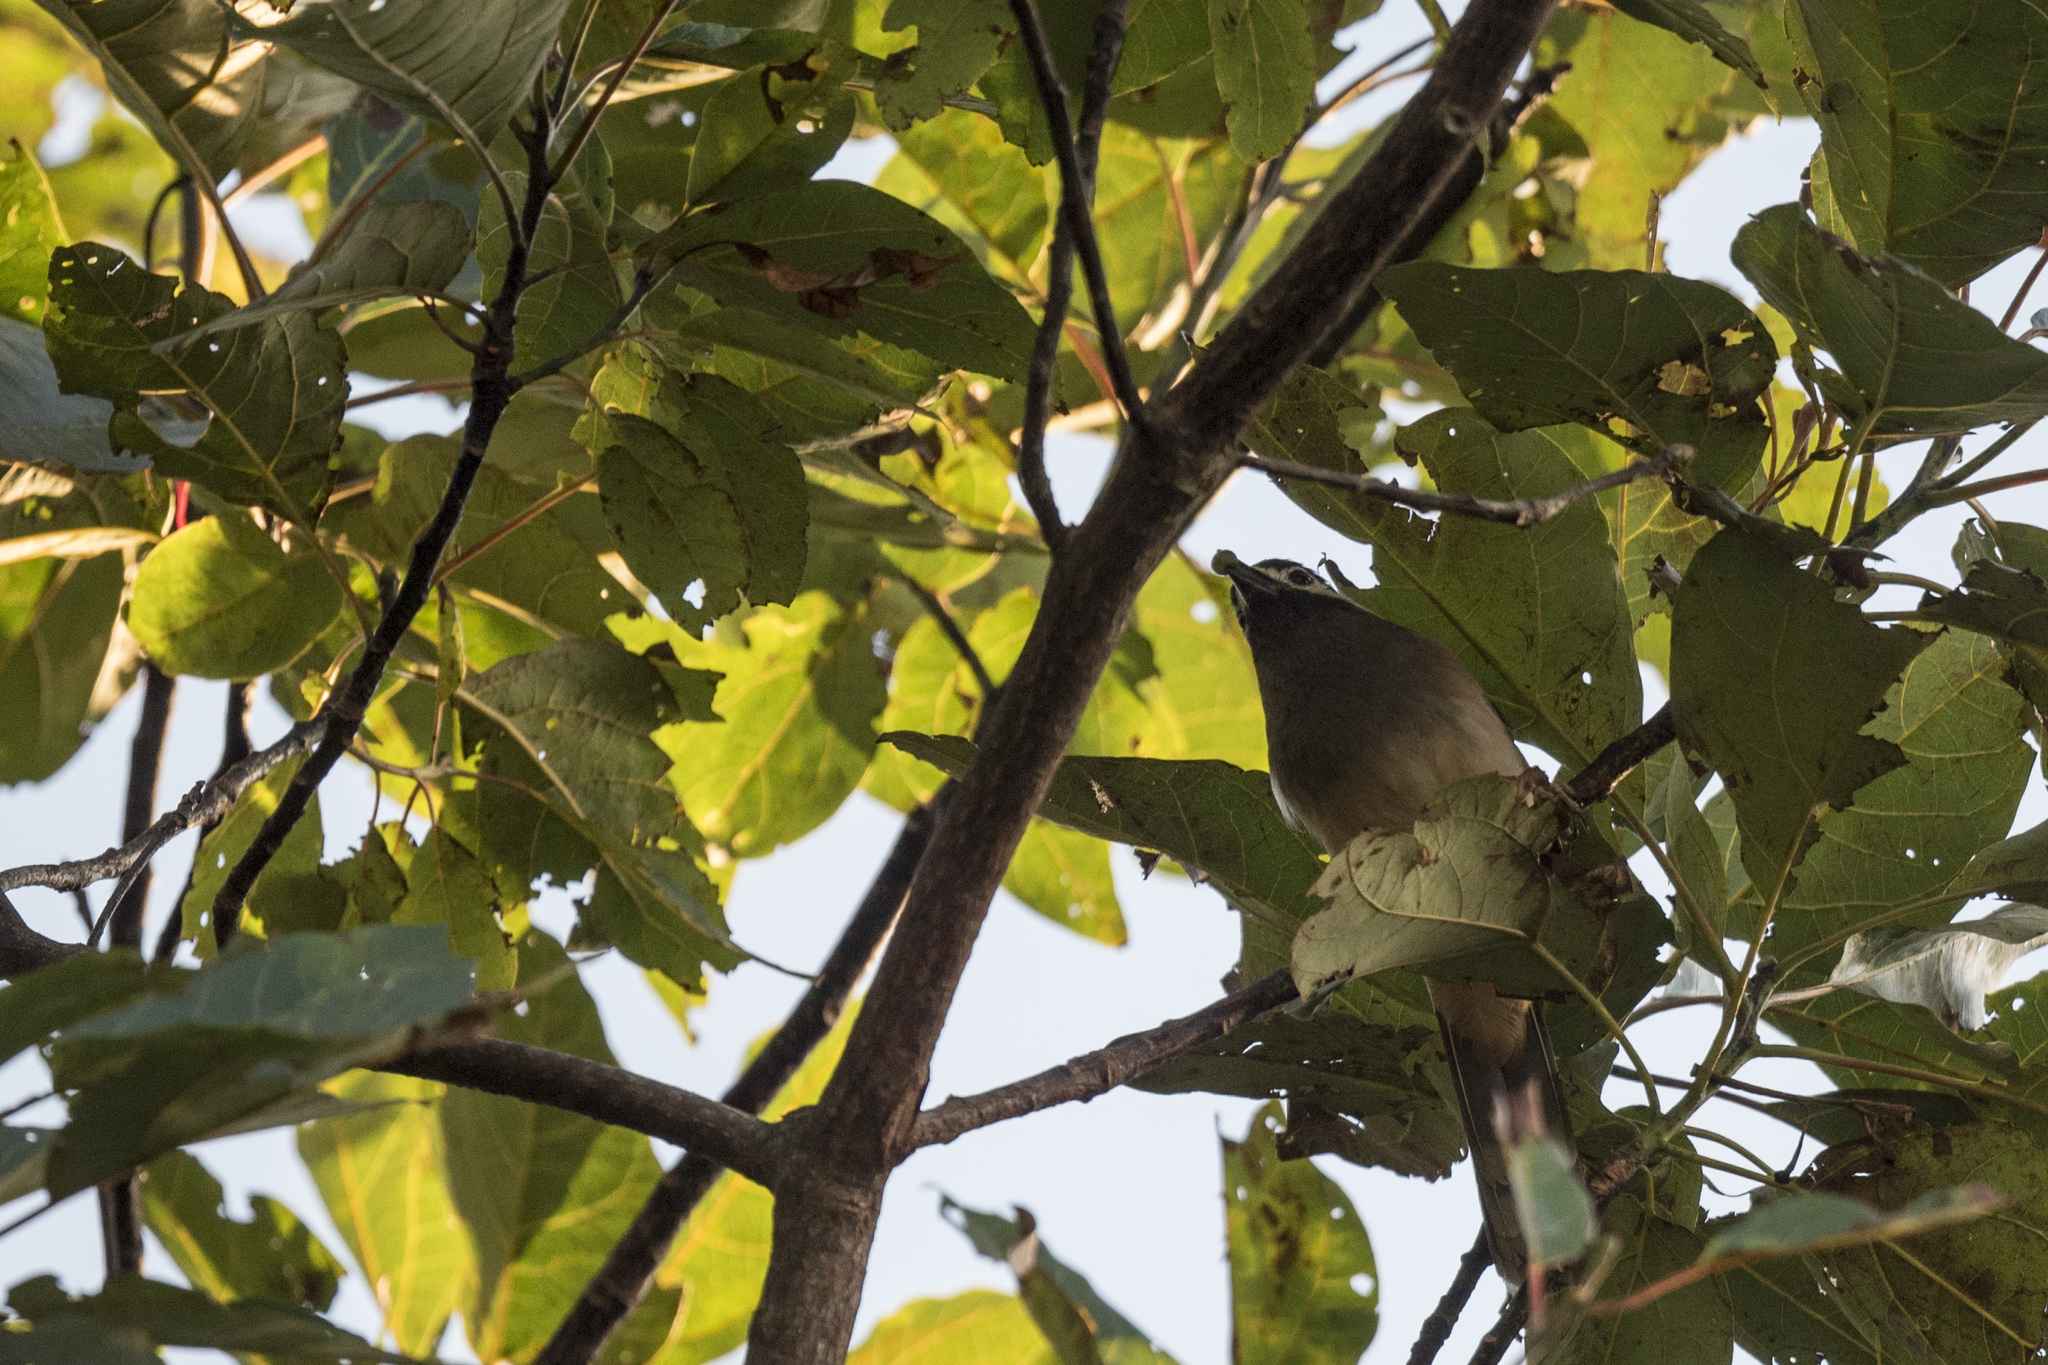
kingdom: Animalia
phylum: Chordata
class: Aves
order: Passeriformes
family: Leiothrichidae
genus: Heterophasia
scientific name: Heterophasia auricularis
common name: White-eared sibia
